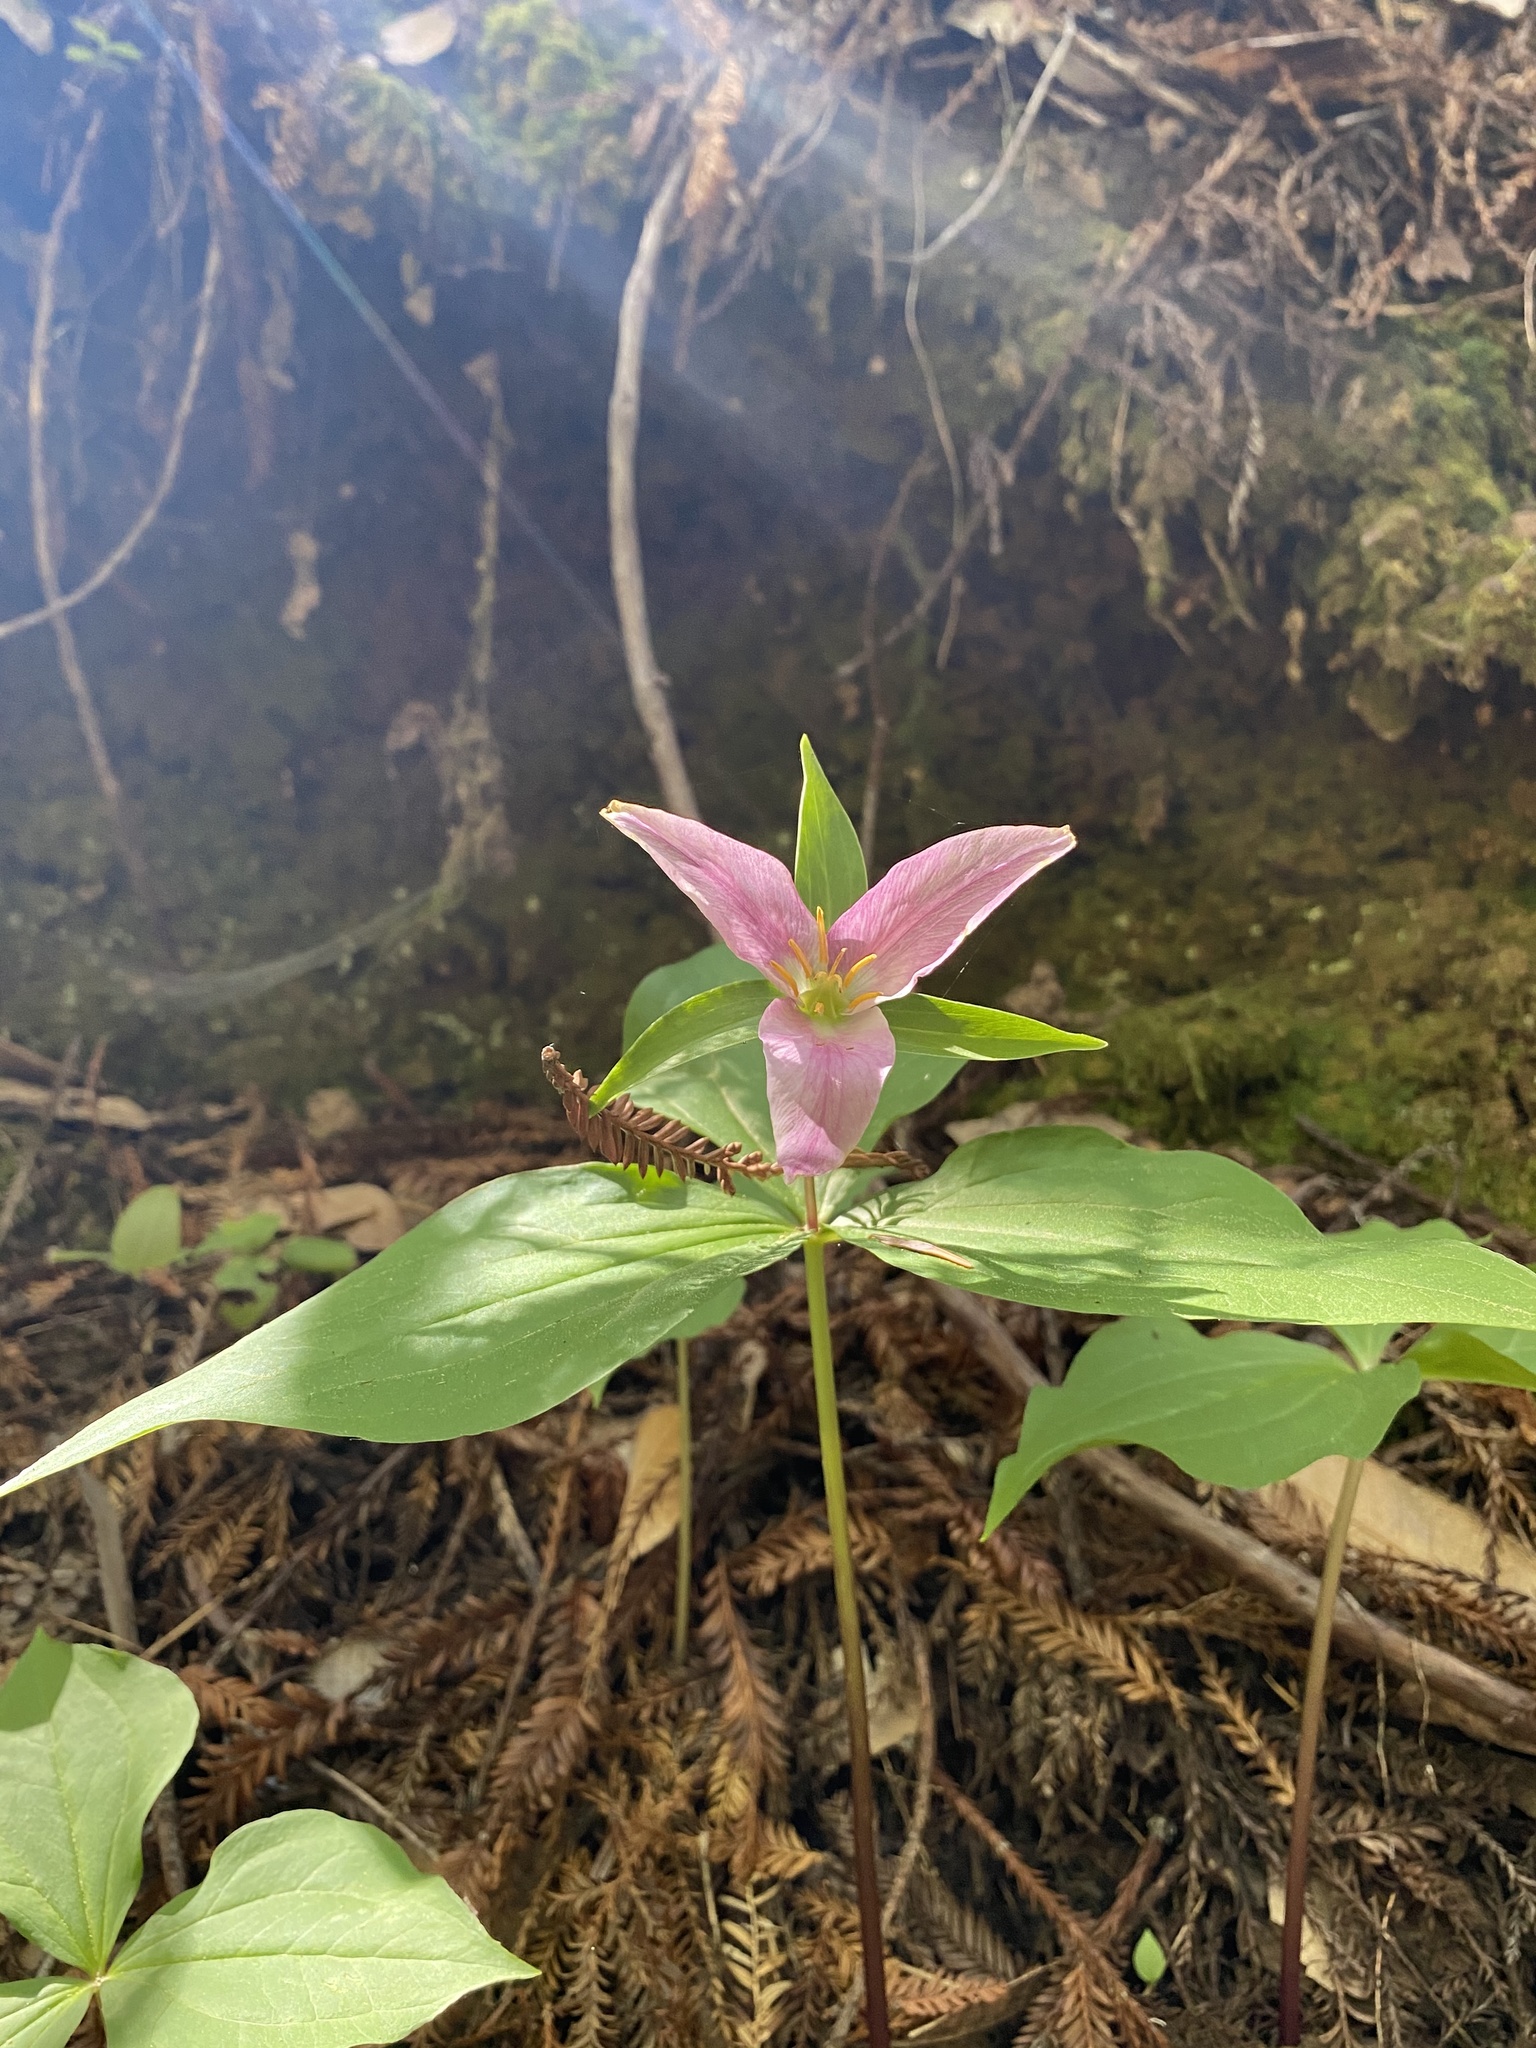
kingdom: Plantae
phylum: Tracheophyta
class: Liliopsida
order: Liliales
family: Melanthiaceae
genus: Trillium
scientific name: Trillium ovatum
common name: Pacific trillium
